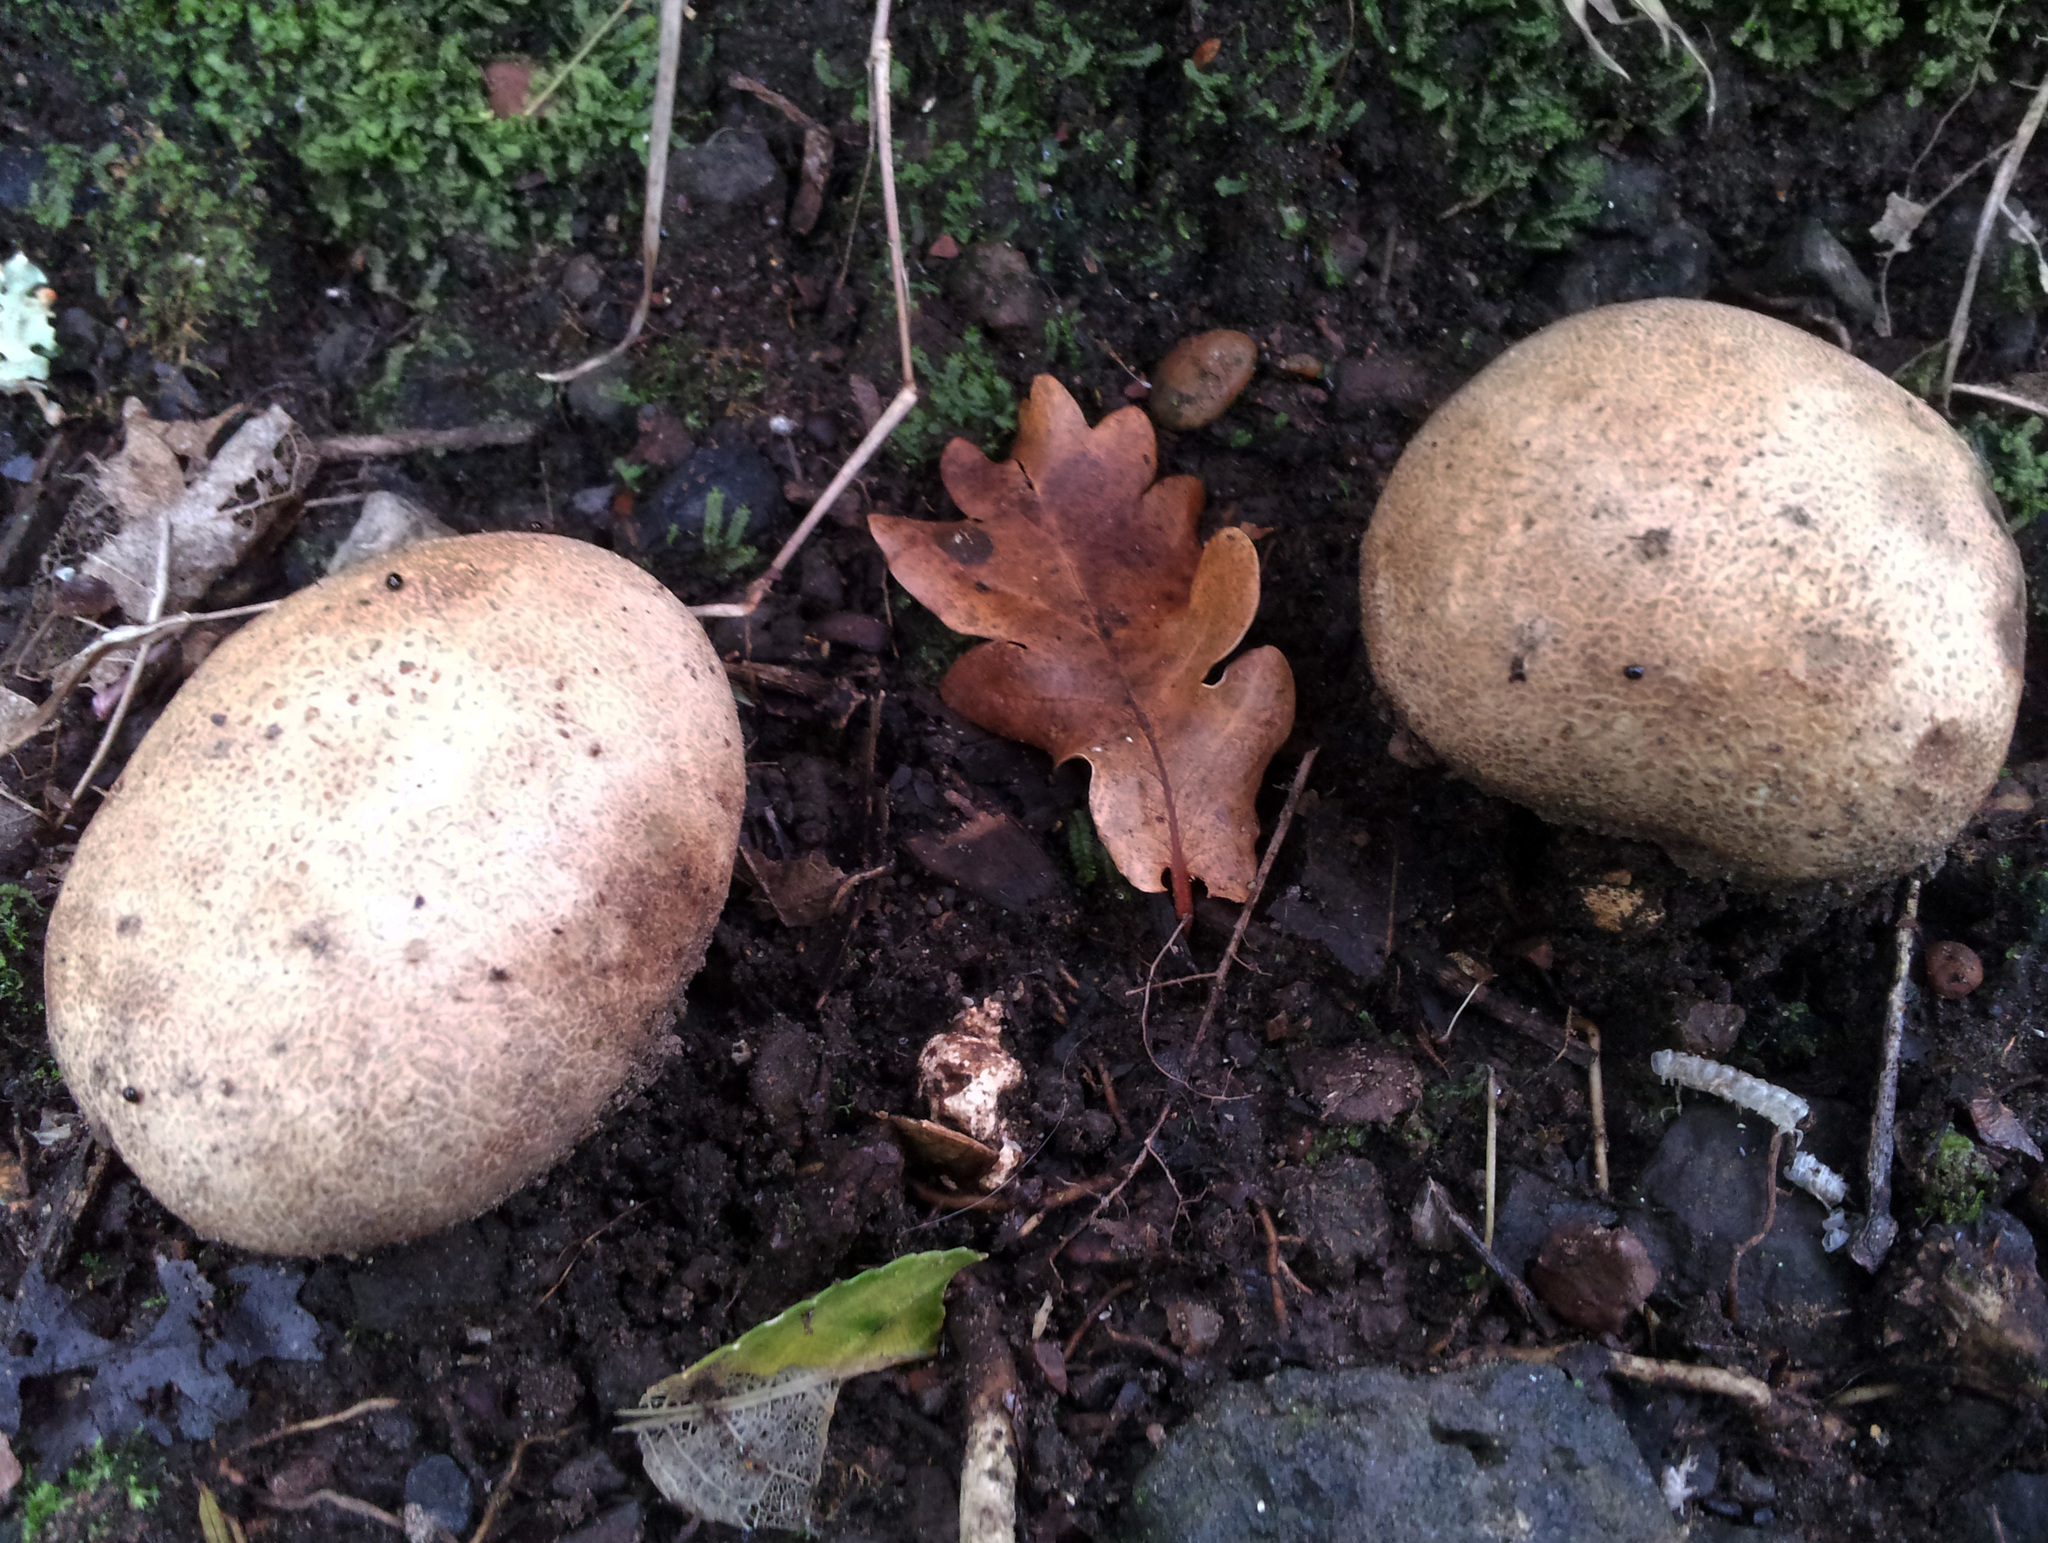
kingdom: Fungi
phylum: Basidiomycota
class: Agaricomycetes
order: Boletales
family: Sclerodermataceae
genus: Scleroderma
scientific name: Scleroderma bovista
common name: Potato earthball
